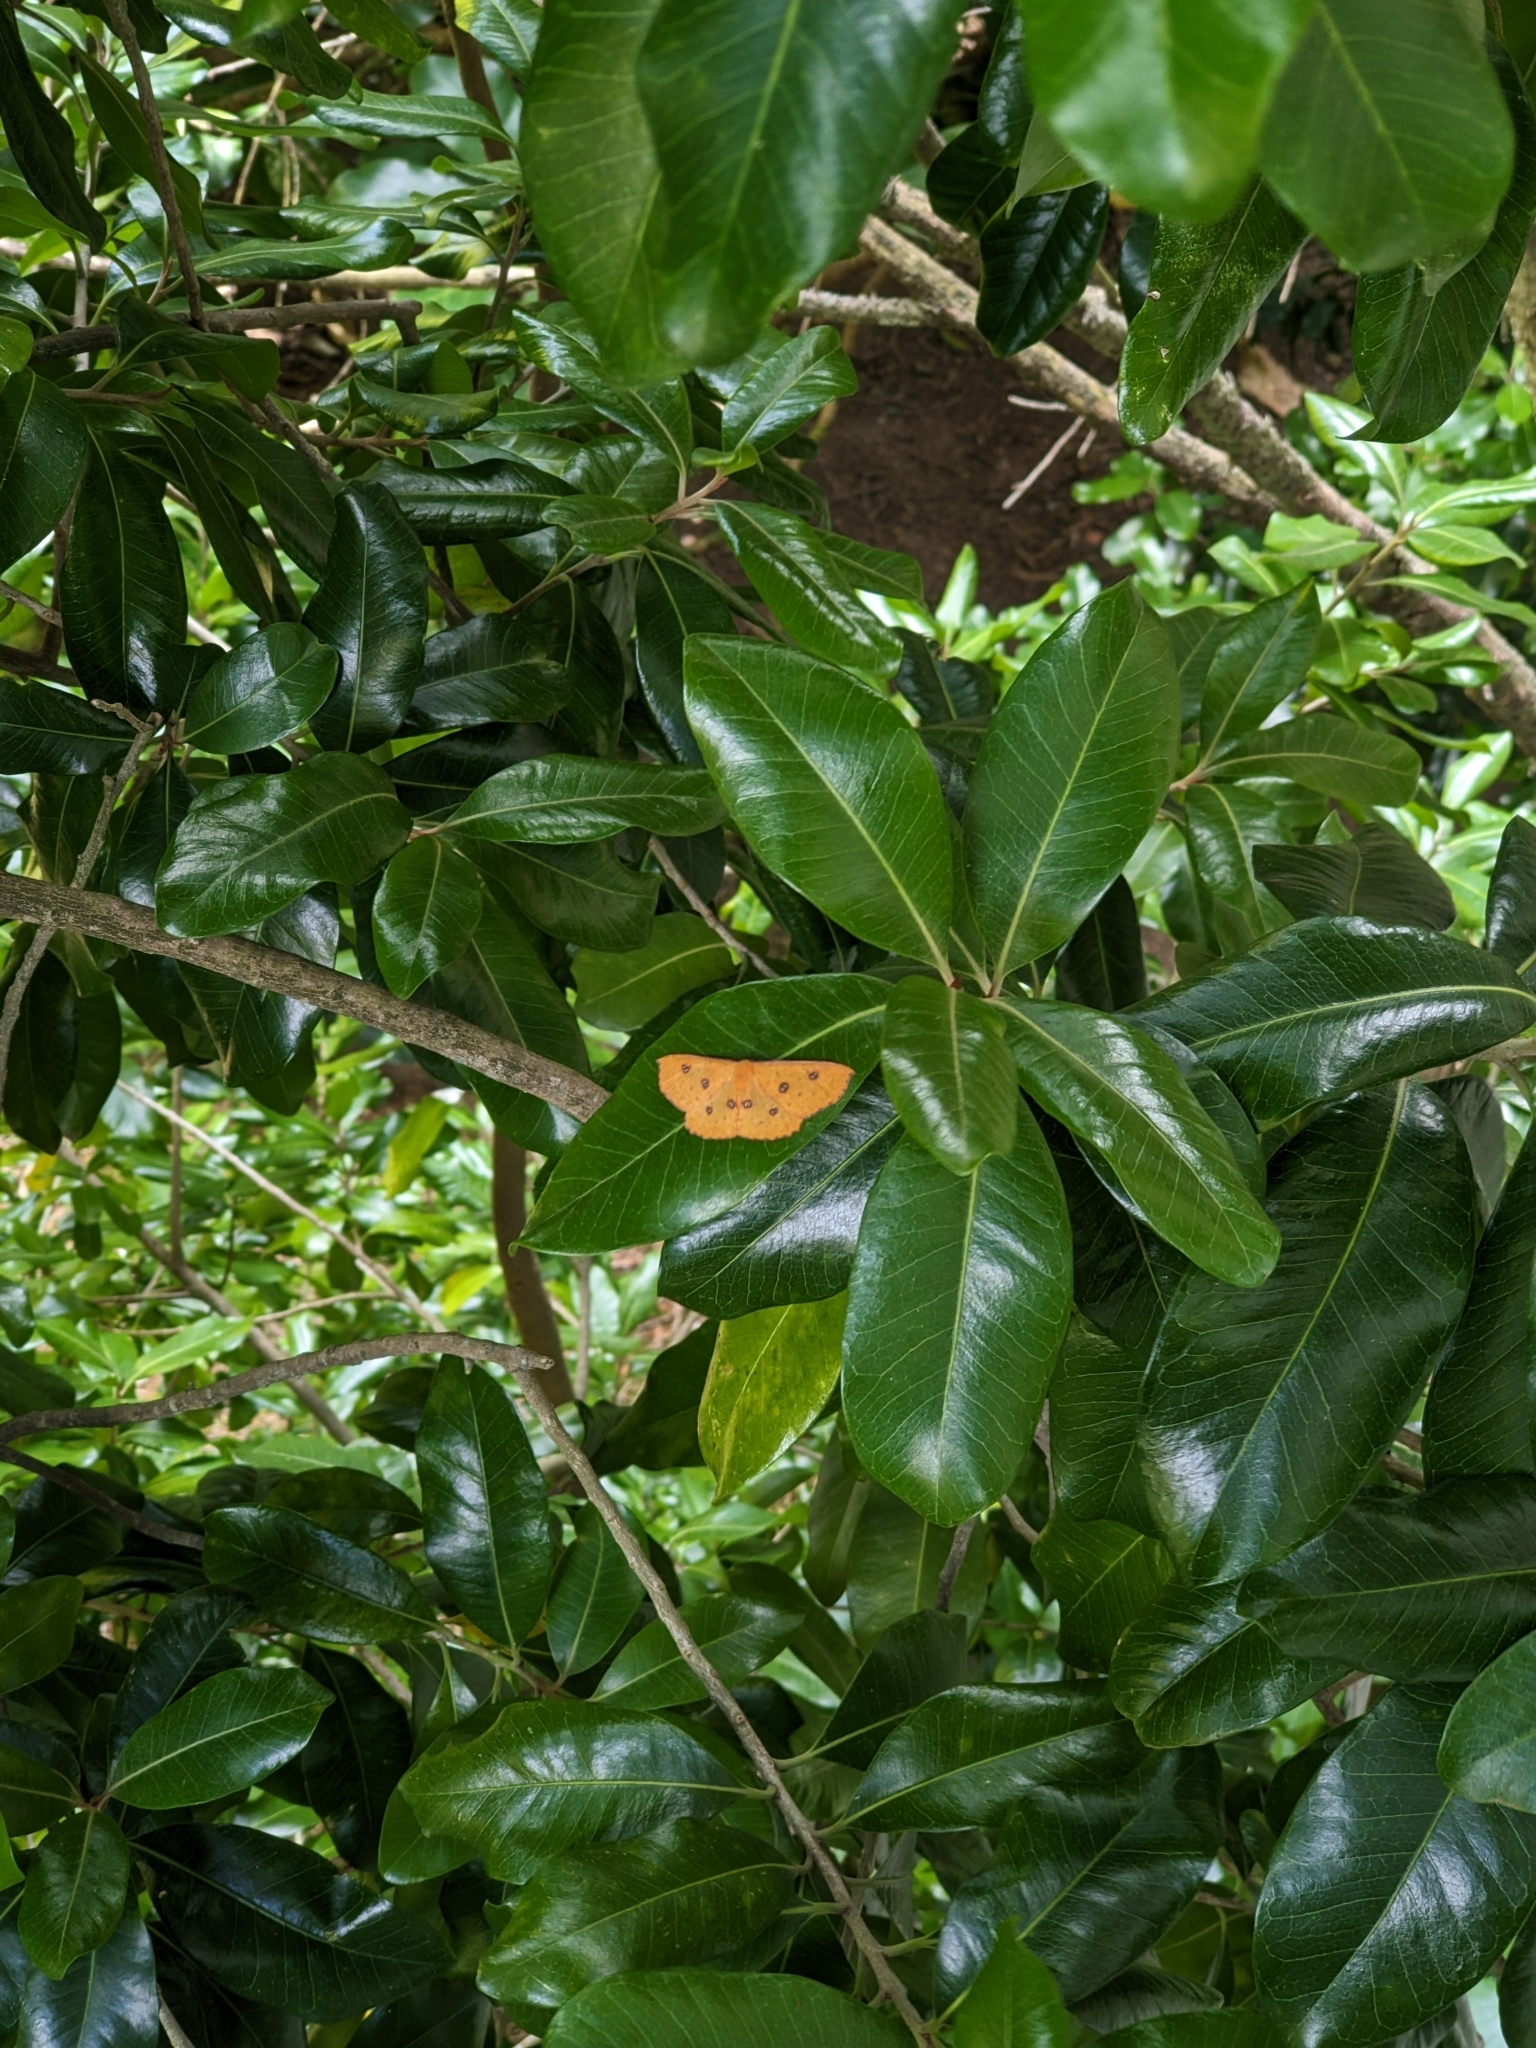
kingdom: Animalia
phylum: Arthropoda
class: Insecta
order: Lepidoptera
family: Geometridae
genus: Xyridacma
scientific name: Xyridacma alectoraria
